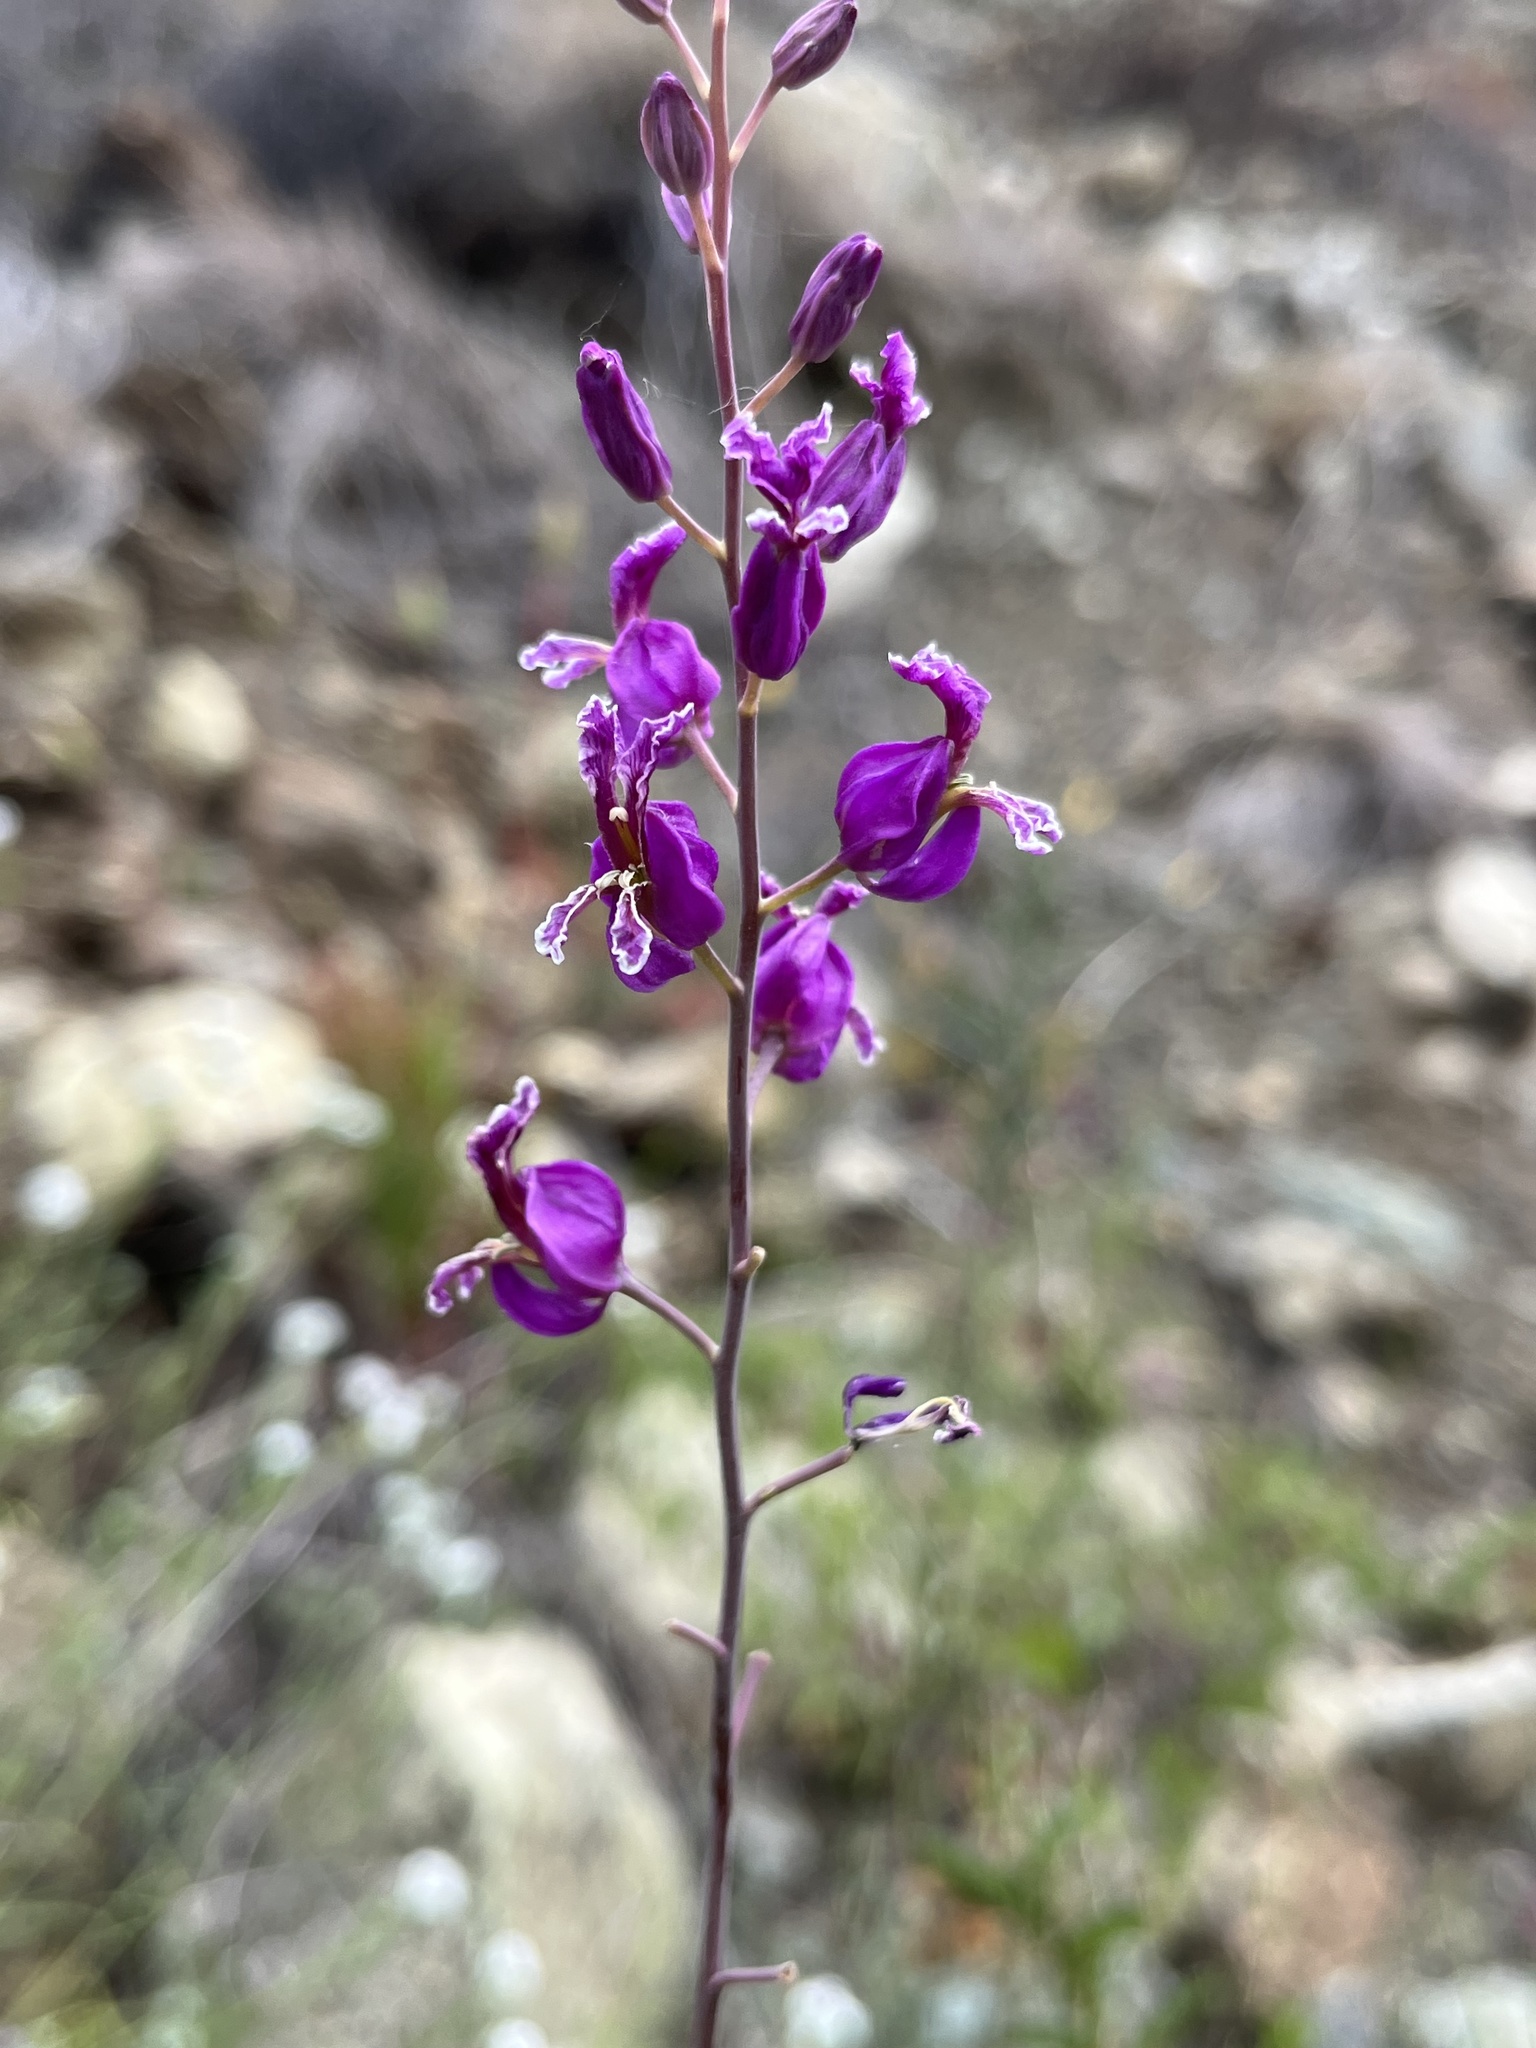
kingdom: Plantae
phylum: Tracheophyta
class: Magnoliopsida
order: Brassicales
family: Brassicaceae
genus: Streptanthus
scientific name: Streptanthus glandulosus
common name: Jewel-flower
